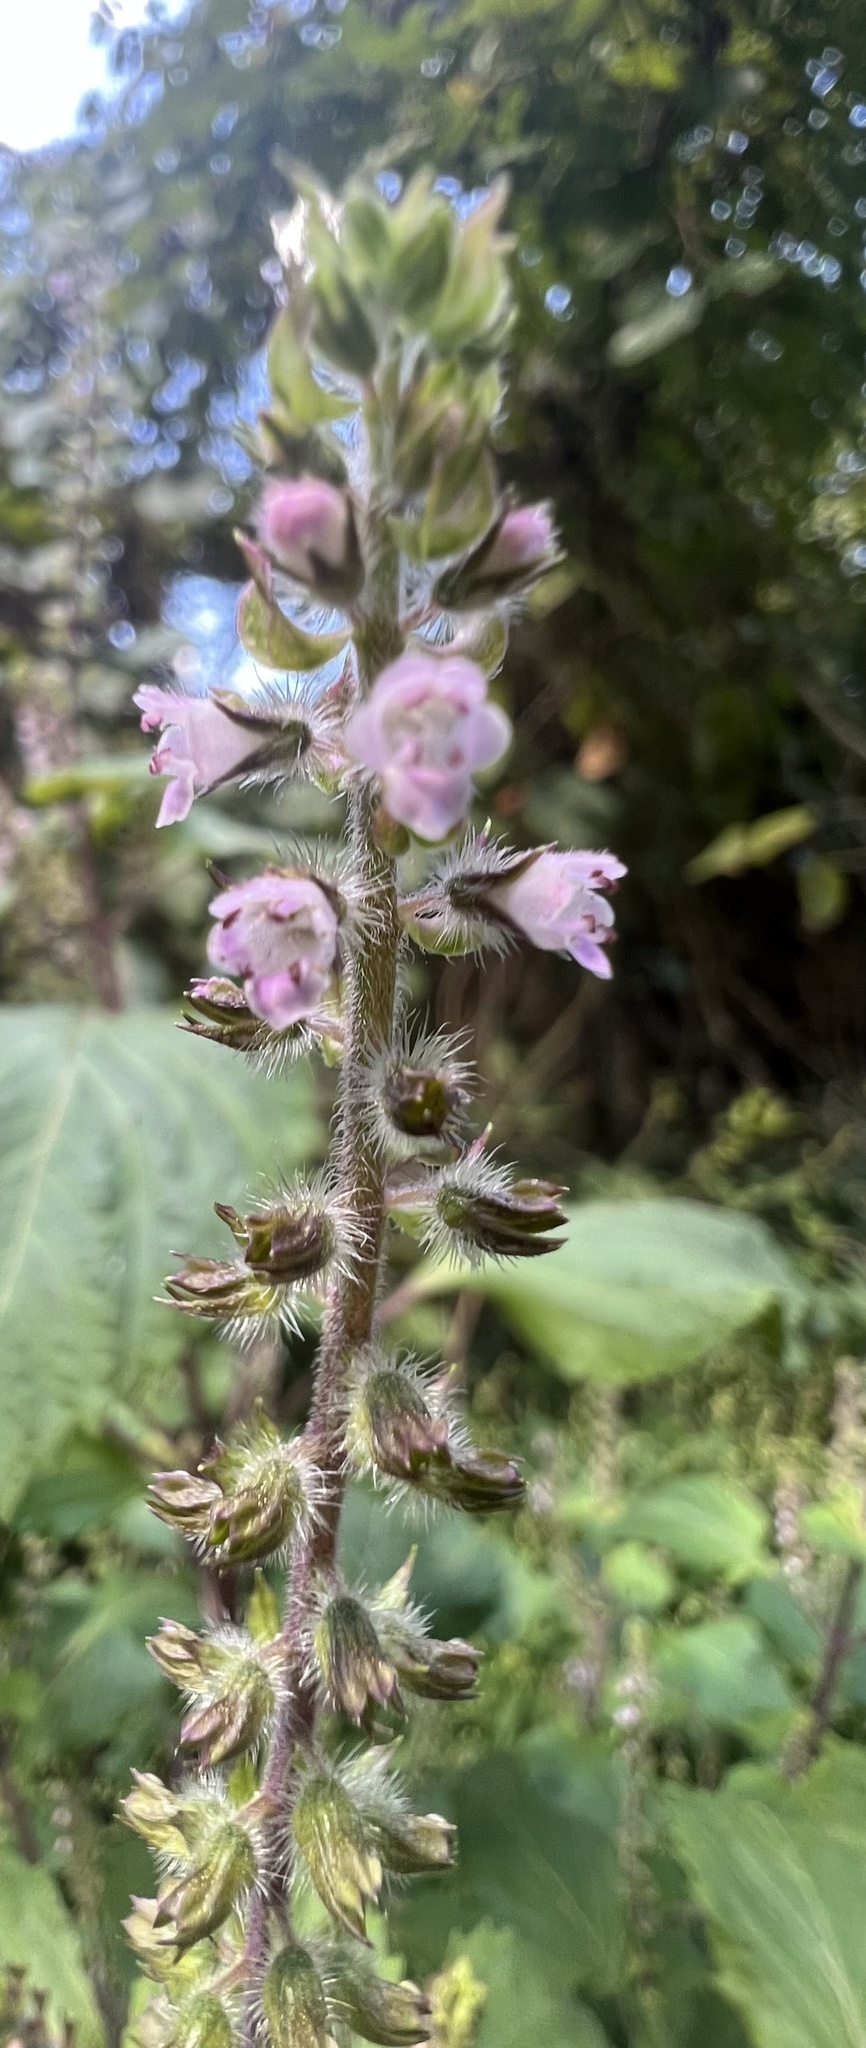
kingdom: Plantae
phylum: Tracheophyta
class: Magnoliopsida
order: Lamiales
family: Lamiaceae
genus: Perilla
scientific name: Perilla frutescens
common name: Perilla
